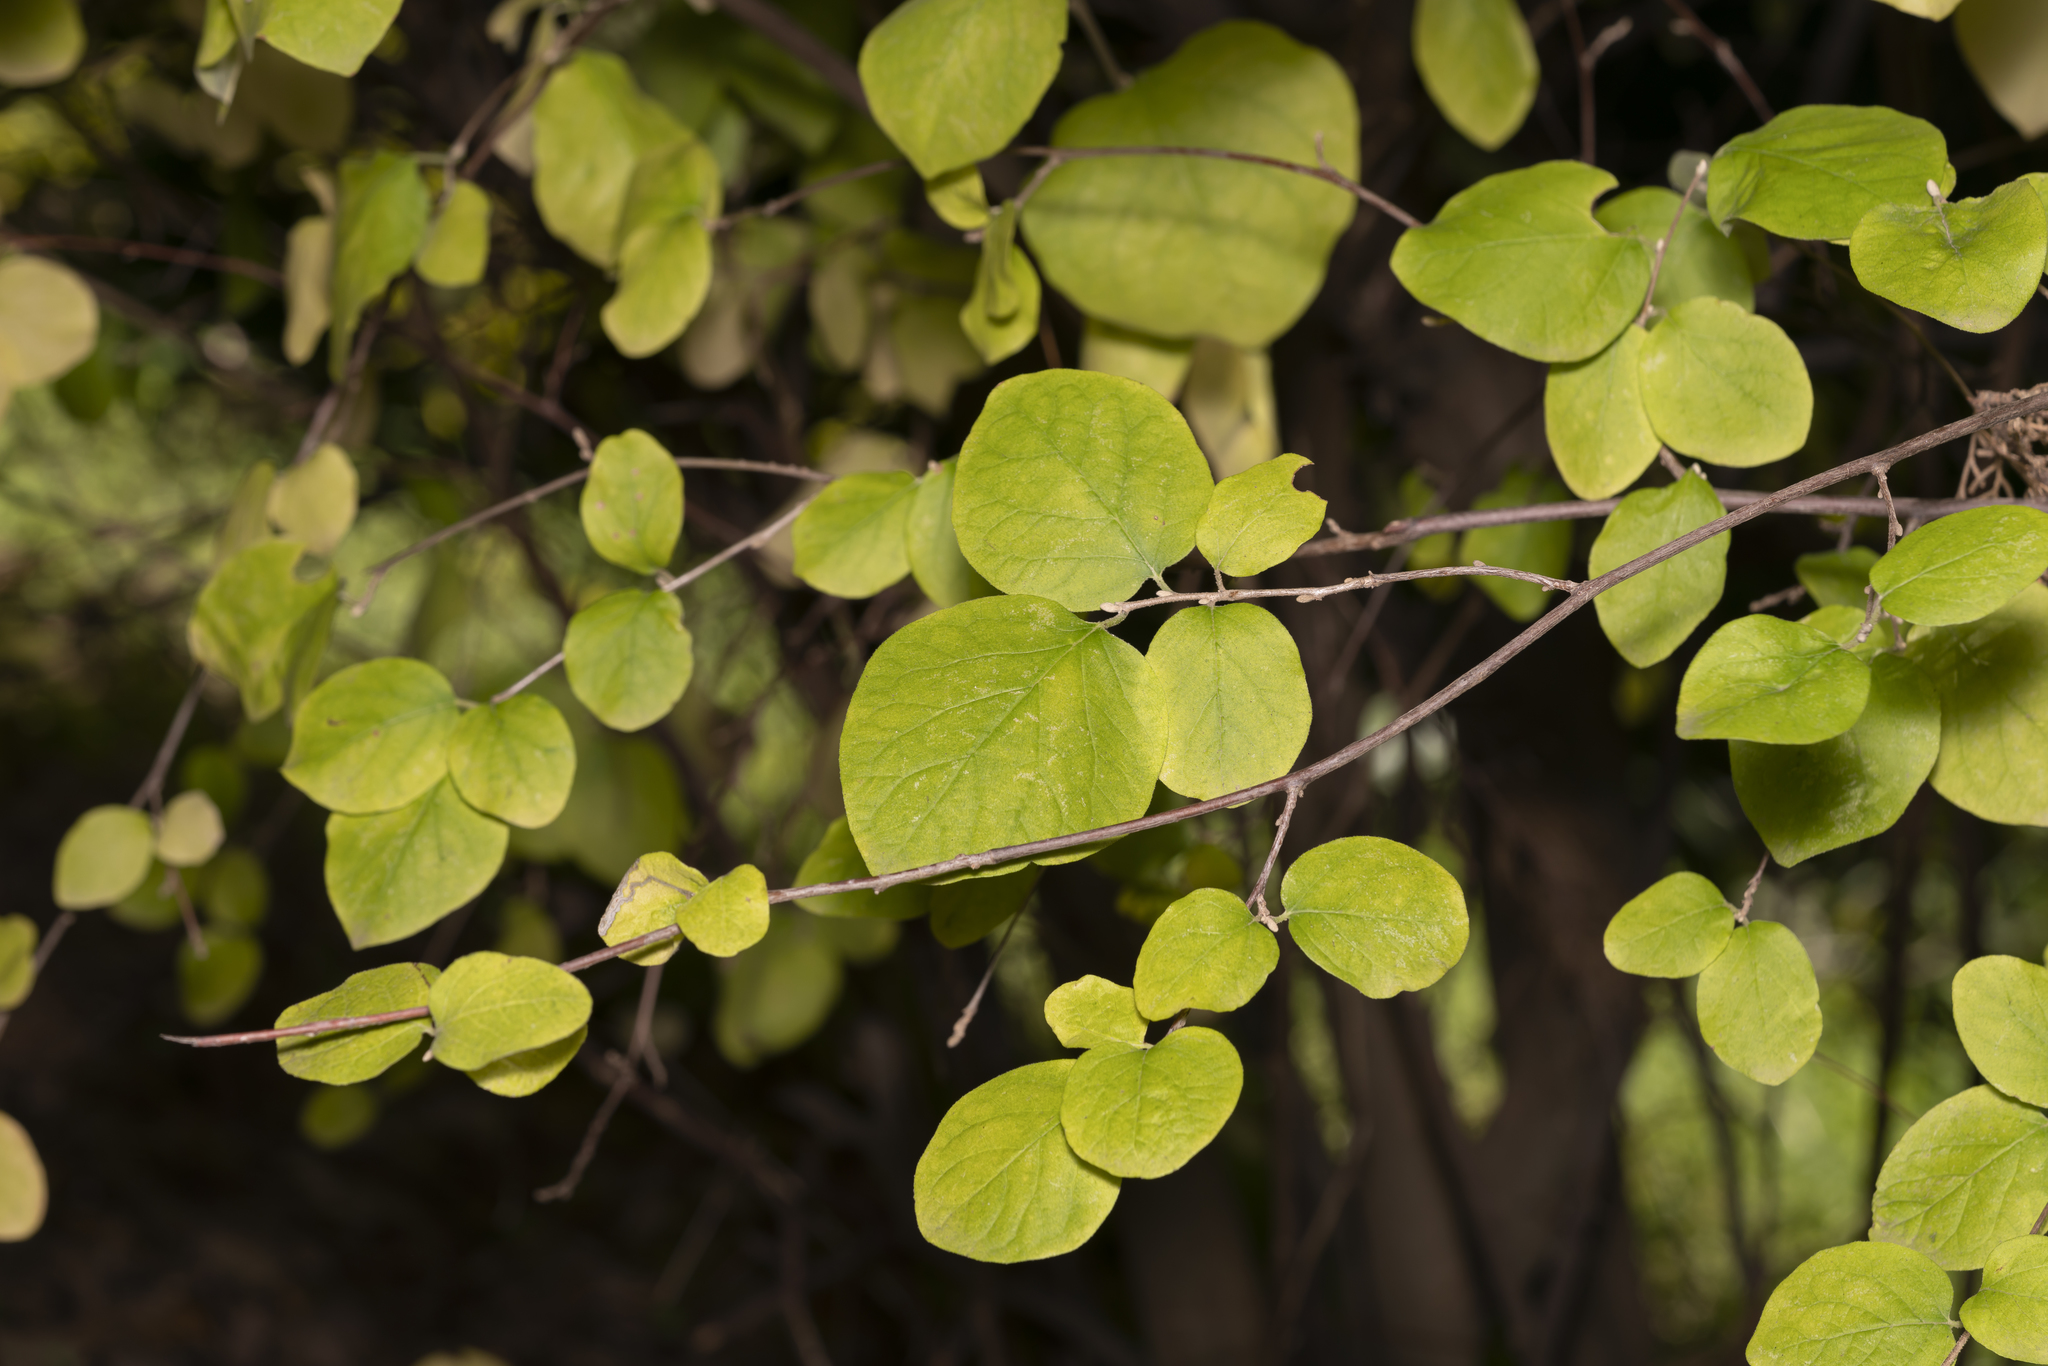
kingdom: Plantae
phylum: Tracheophyta
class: Magnoliopsida
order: Ericales
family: Styracaceae
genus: Styrax
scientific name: Styrax officinalis
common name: Storax
